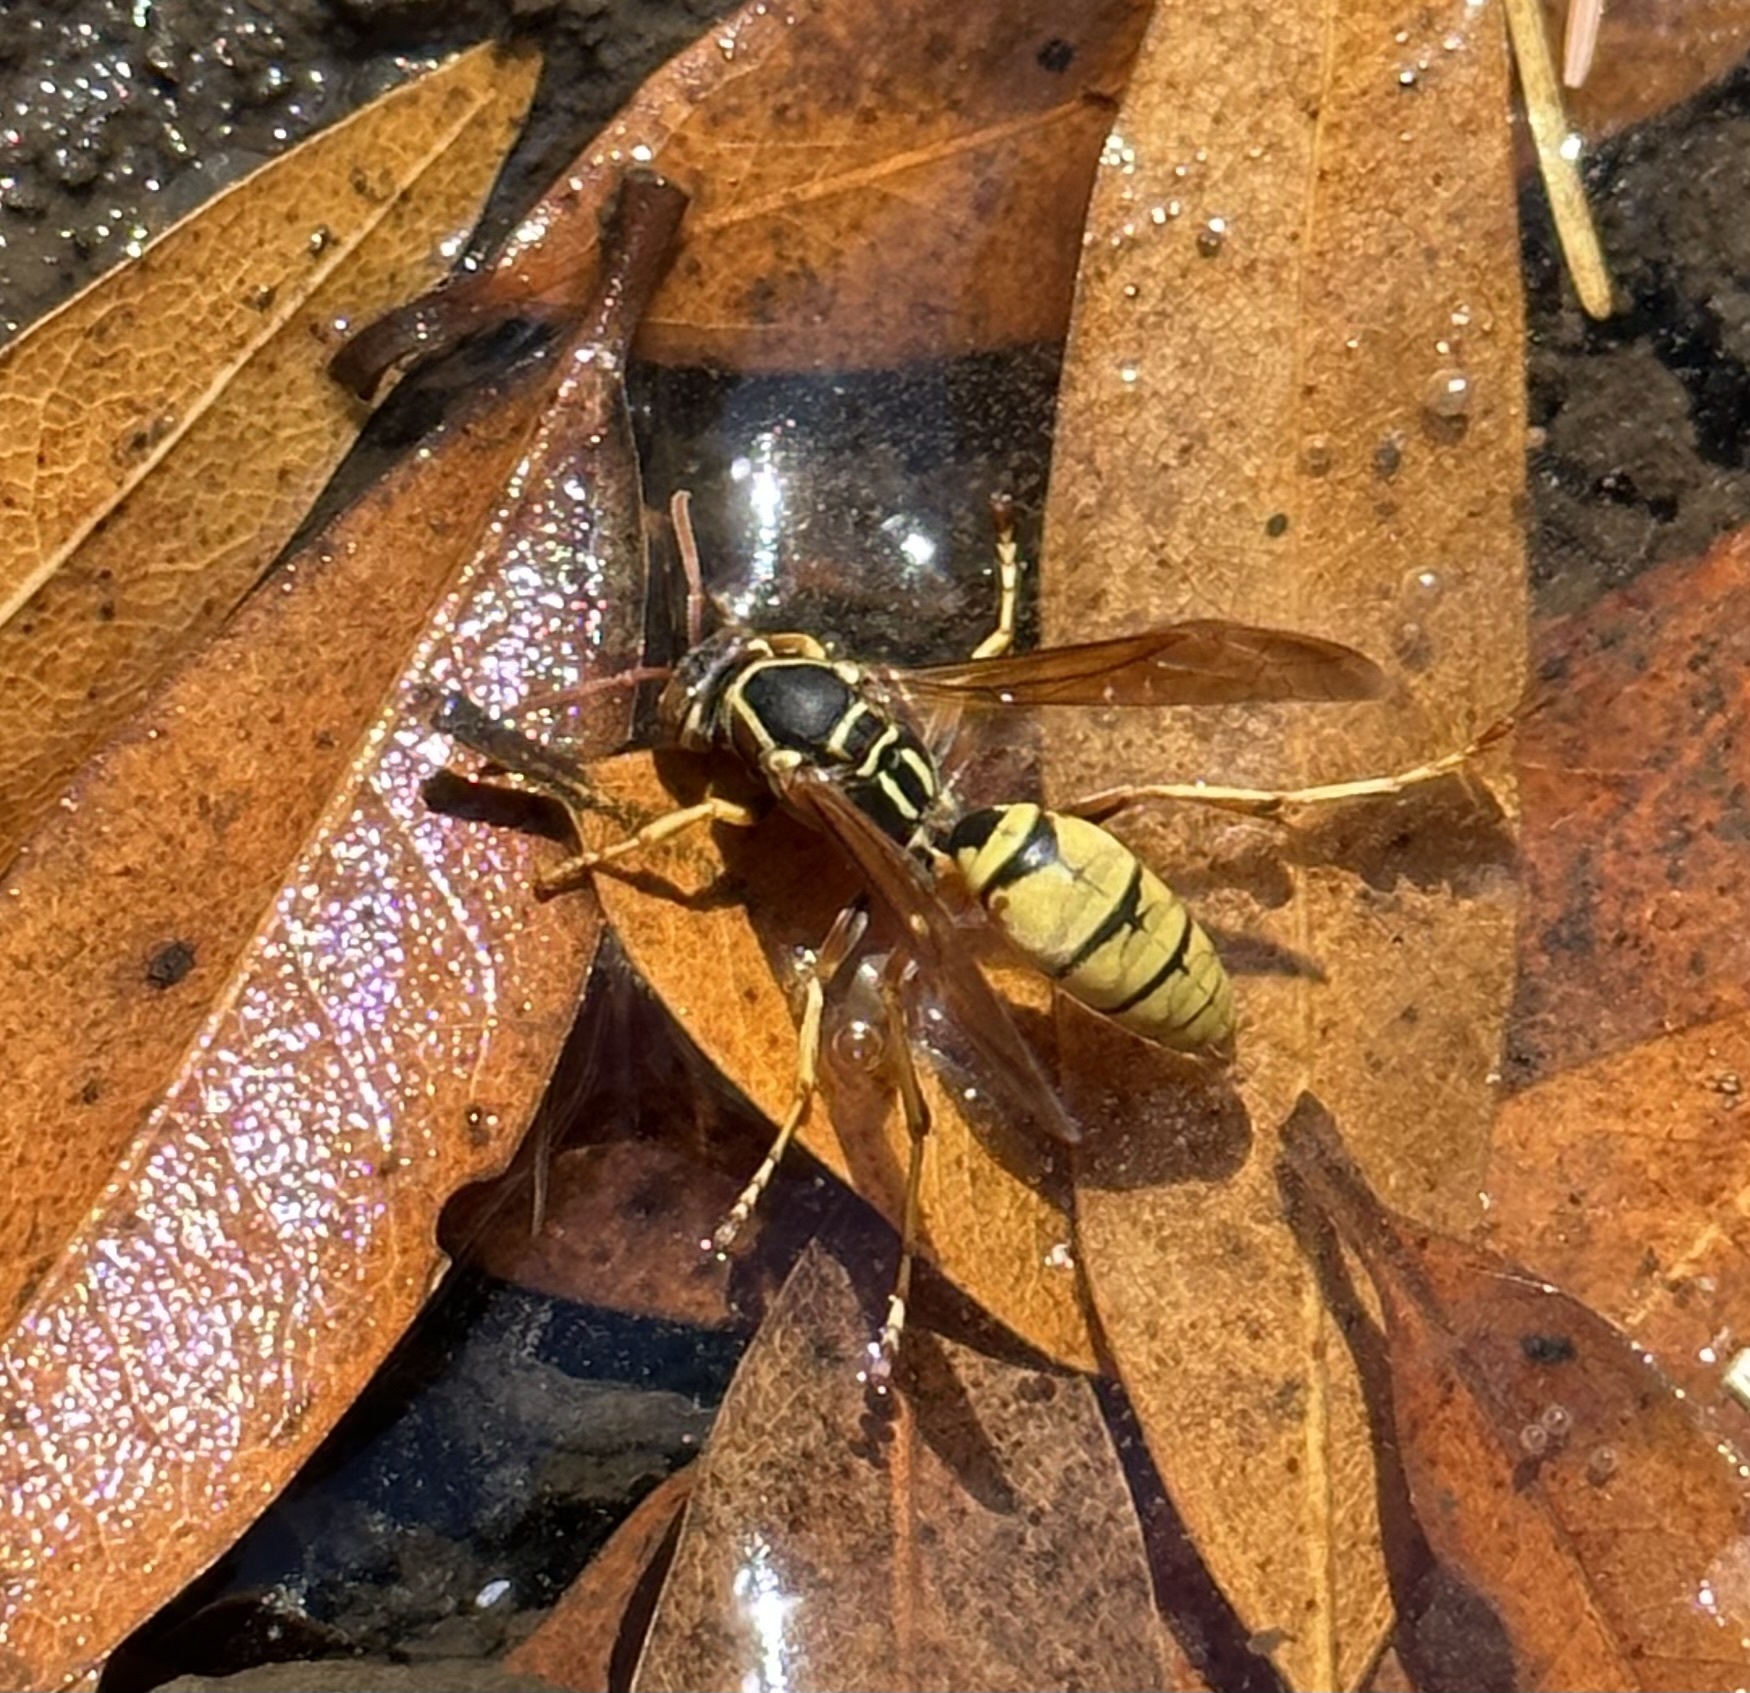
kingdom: Animalia
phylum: Arthropoda
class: Insecta
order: Hymenoptera
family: Eumenidae
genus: Polistes
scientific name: Polistes aurifer
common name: Paper wasp
